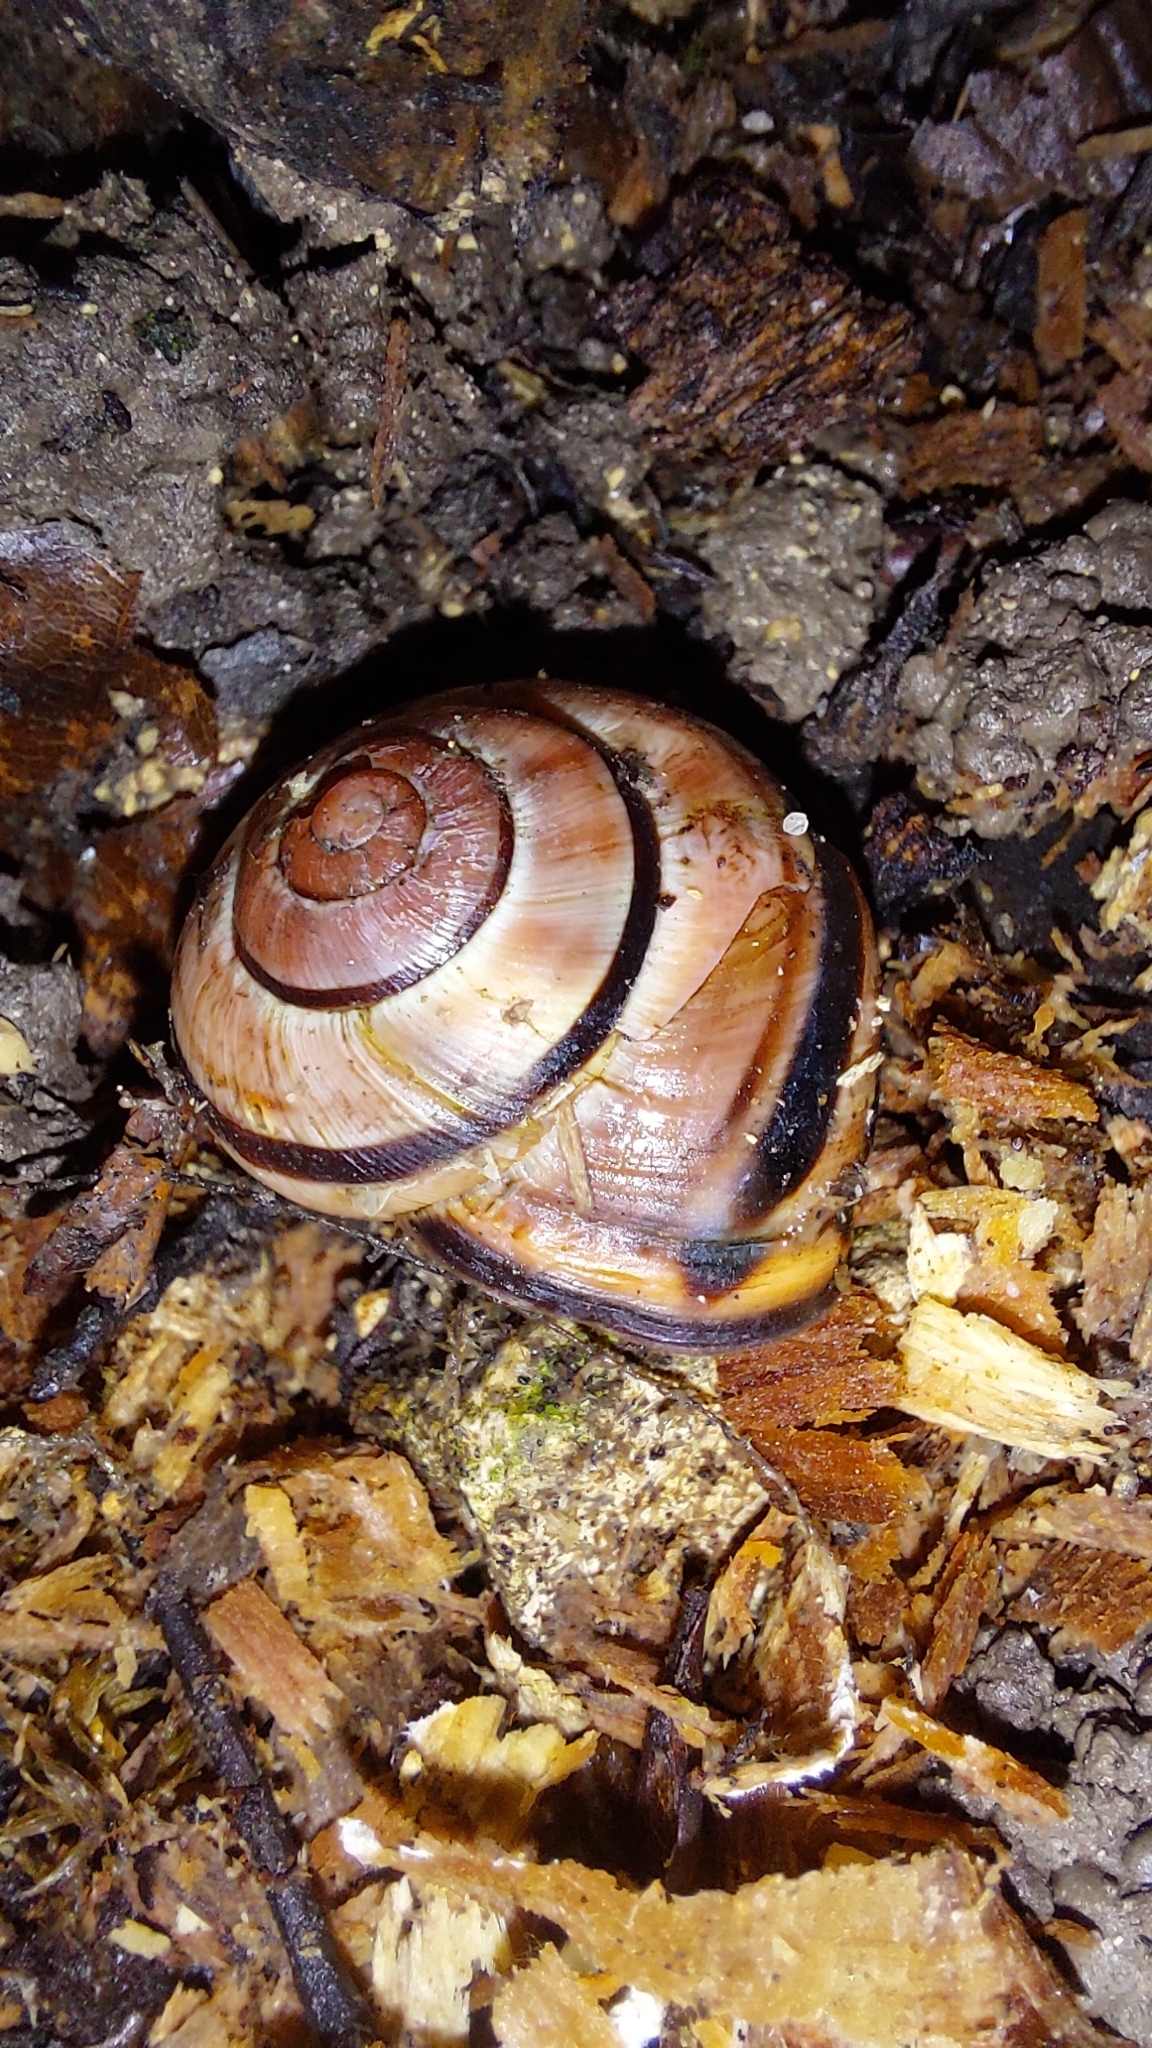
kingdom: Animalia
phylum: Mollusca
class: Gastropoda
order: Stylommatophora
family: Helicidae
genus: Cepaea
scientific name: Cepaea nemoralis
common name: Grovesnail
